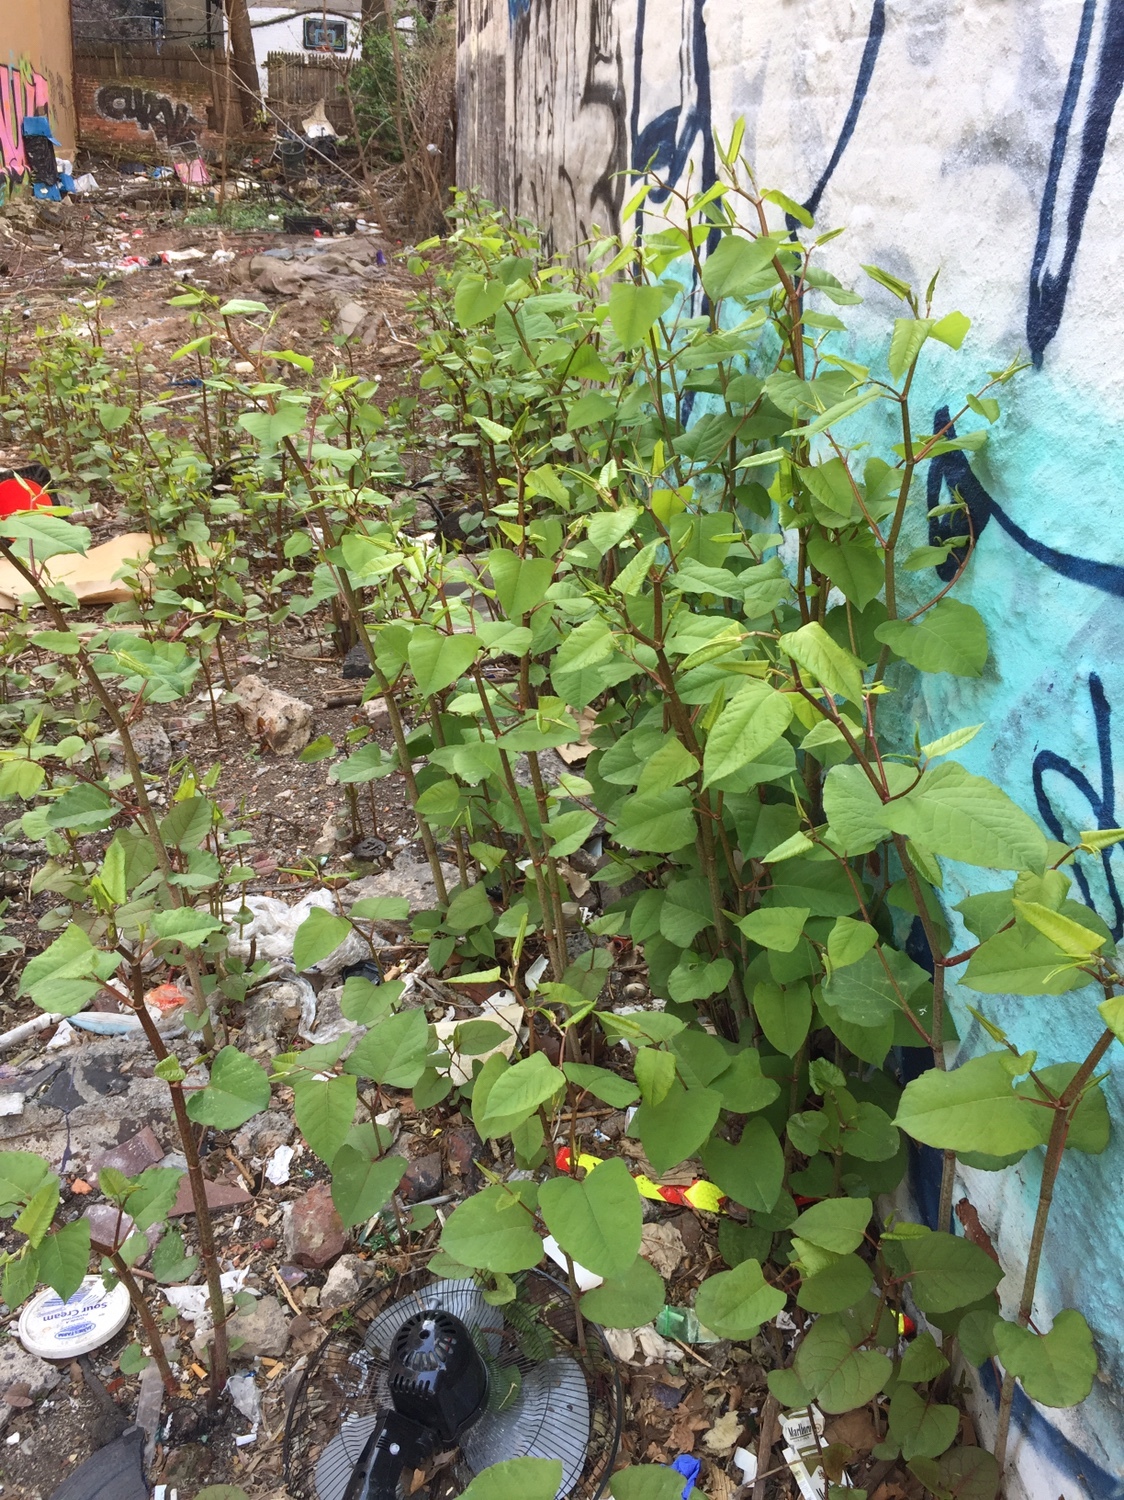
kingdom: Plantae
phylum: Tracheophyta
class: Magnoliopsida
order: Caryophyllales
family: Polygonaceae
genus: Reynoutria
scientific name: Reynoutria japonica
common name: Japanese knotweed
